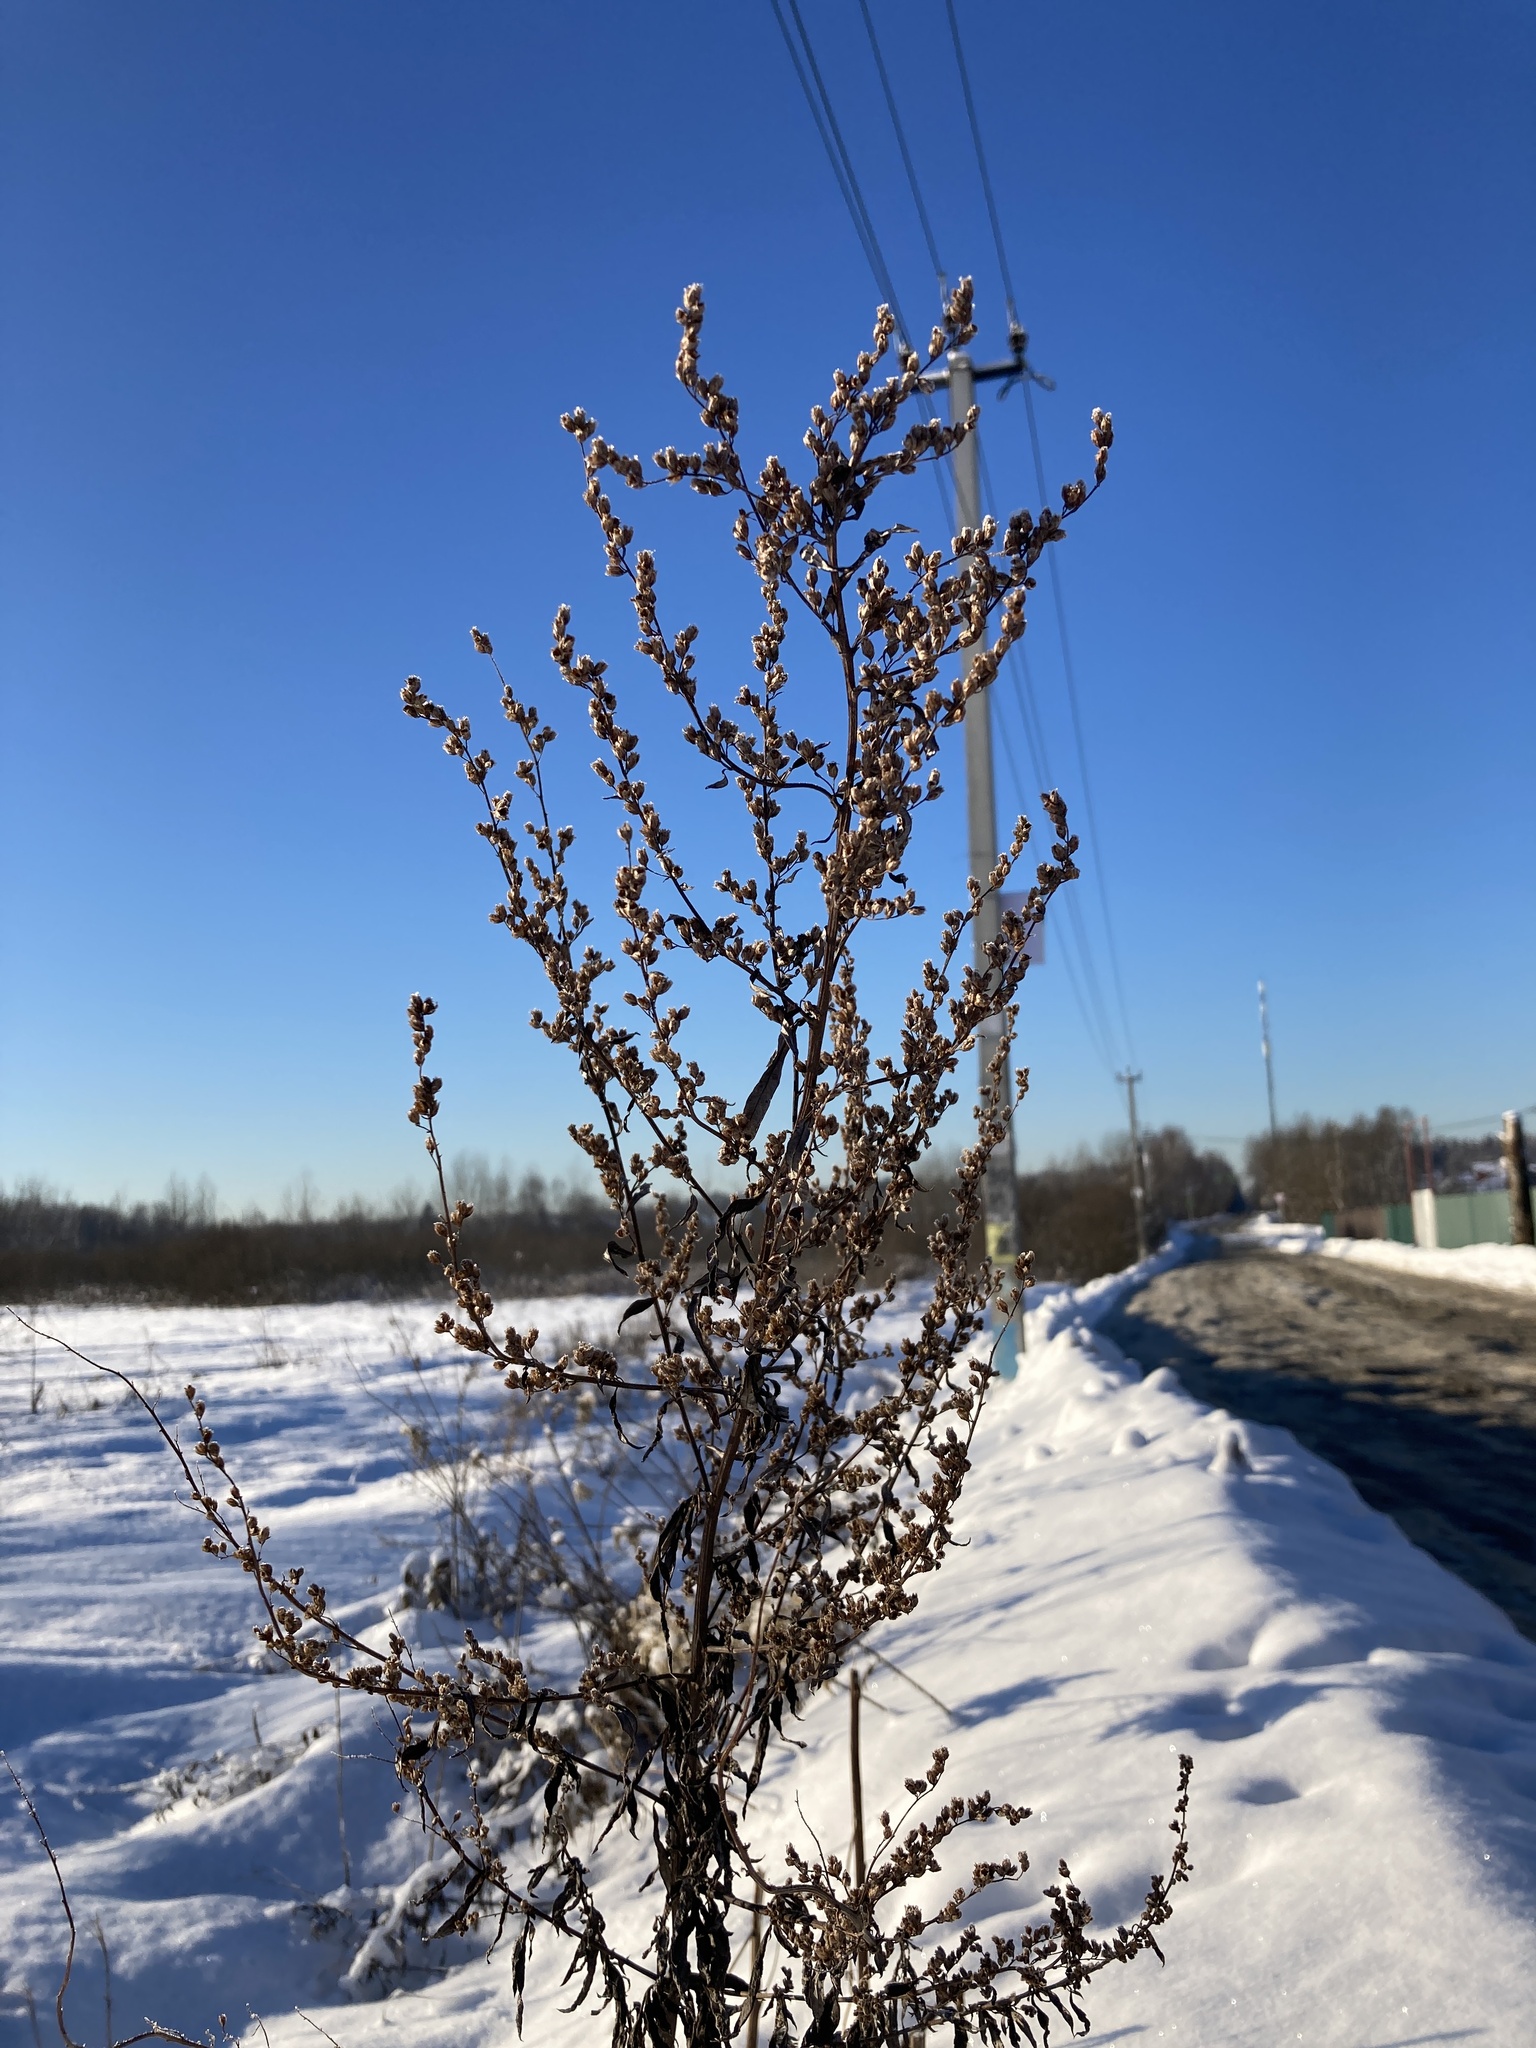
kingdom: Plantae
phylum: Tracheophyta
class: Magnoliopsida
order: Asterales
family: Asteraceae
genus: Artemisia
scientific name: Artemisia vulgaris
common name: Mugwort
